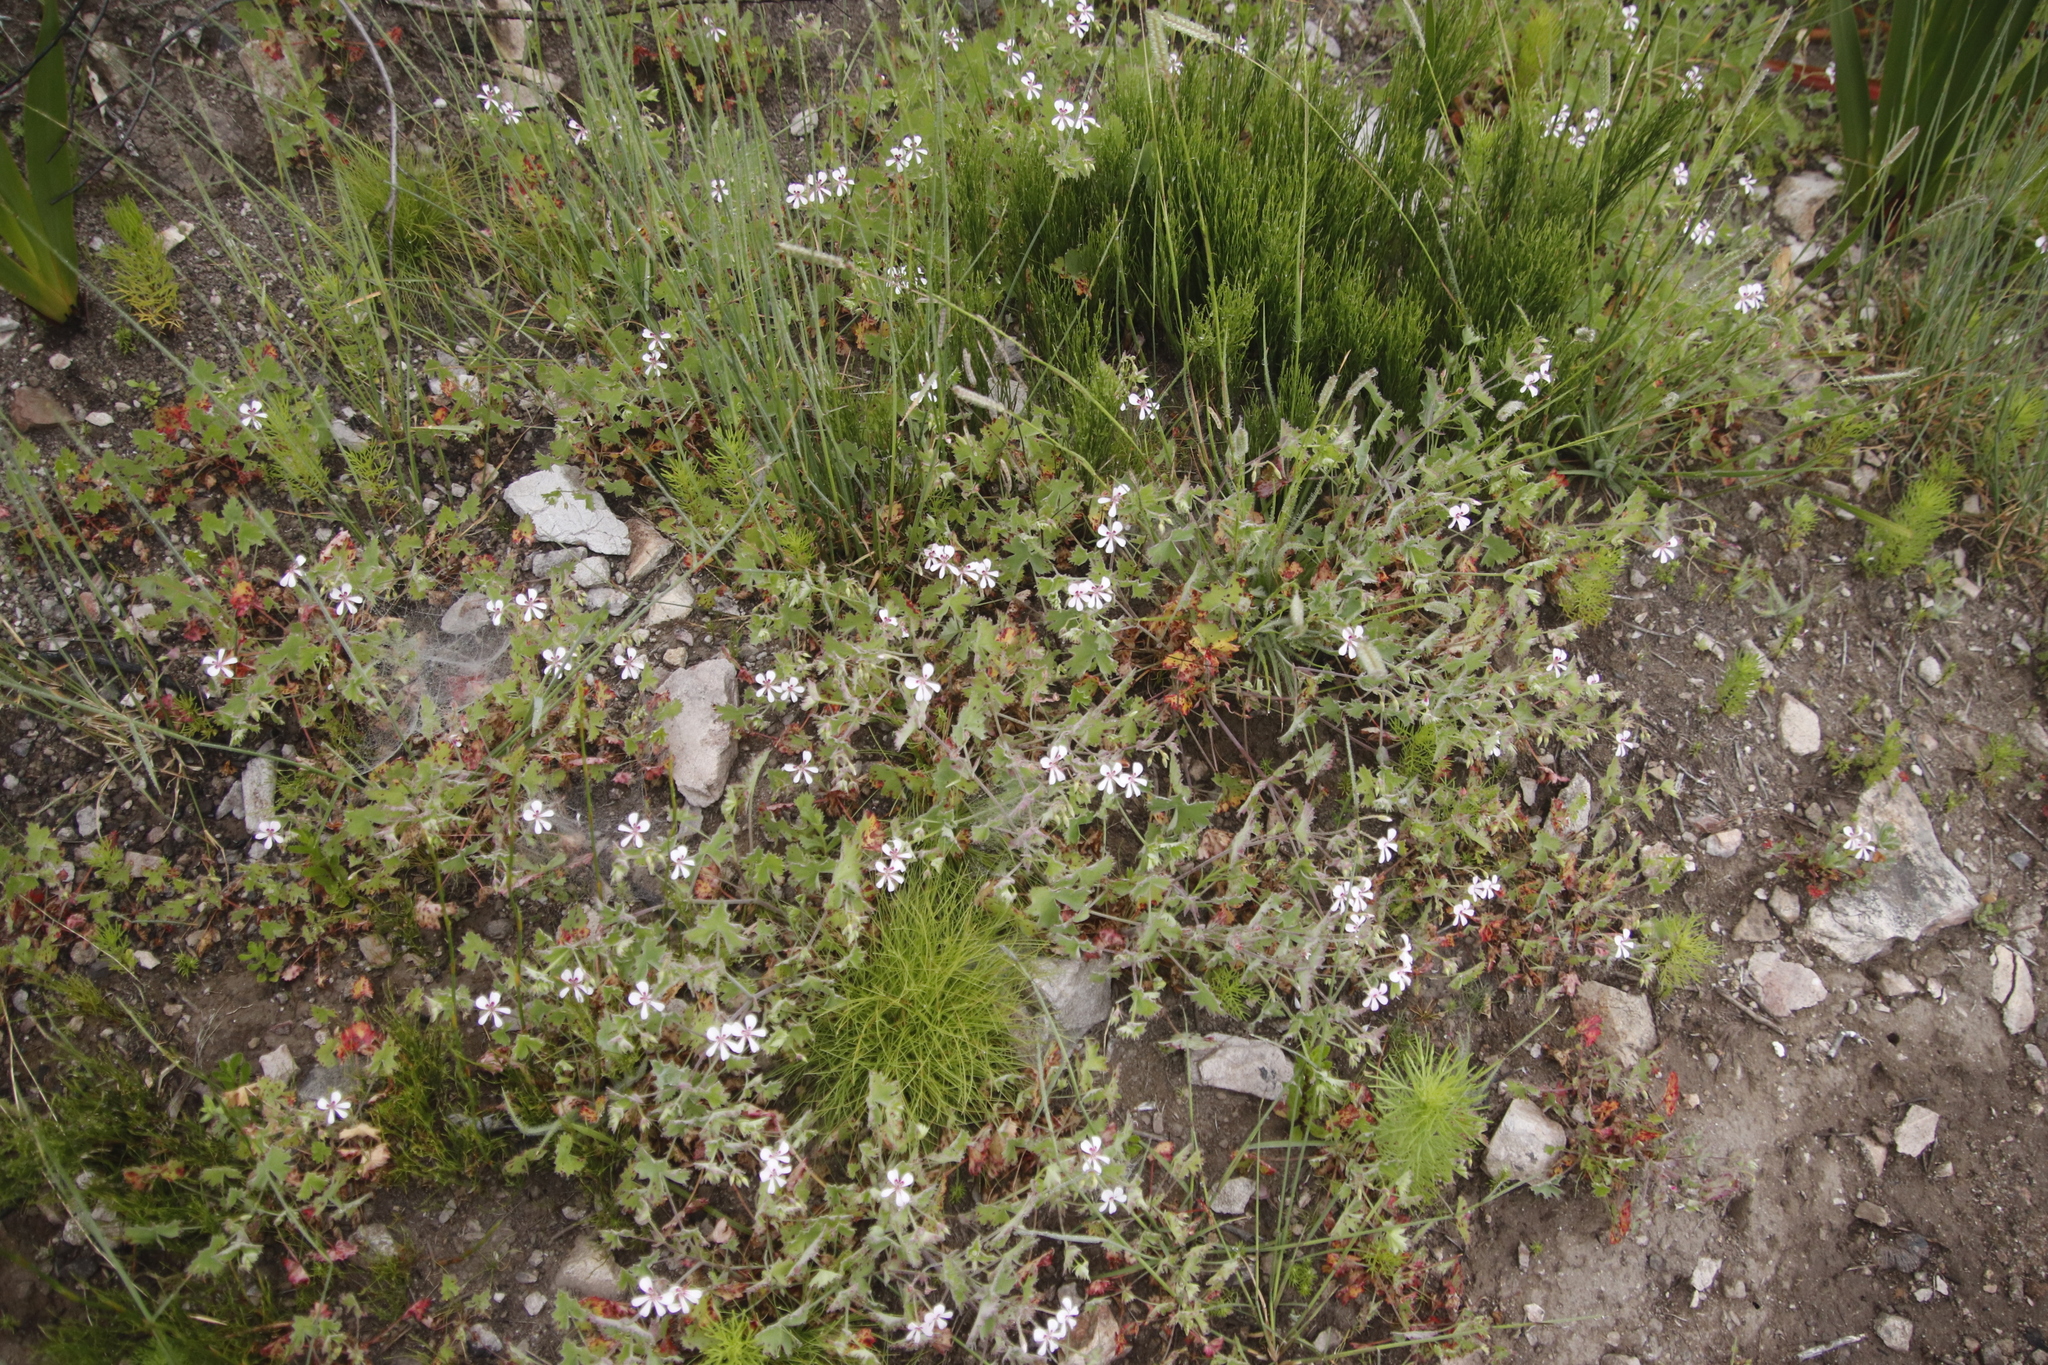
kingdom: Plantae
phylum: Tracheophyta
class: Magnoliopsida
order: Geraniales
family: Geraniaceae
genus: Pelargonium
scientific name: Pelargonium patulum
